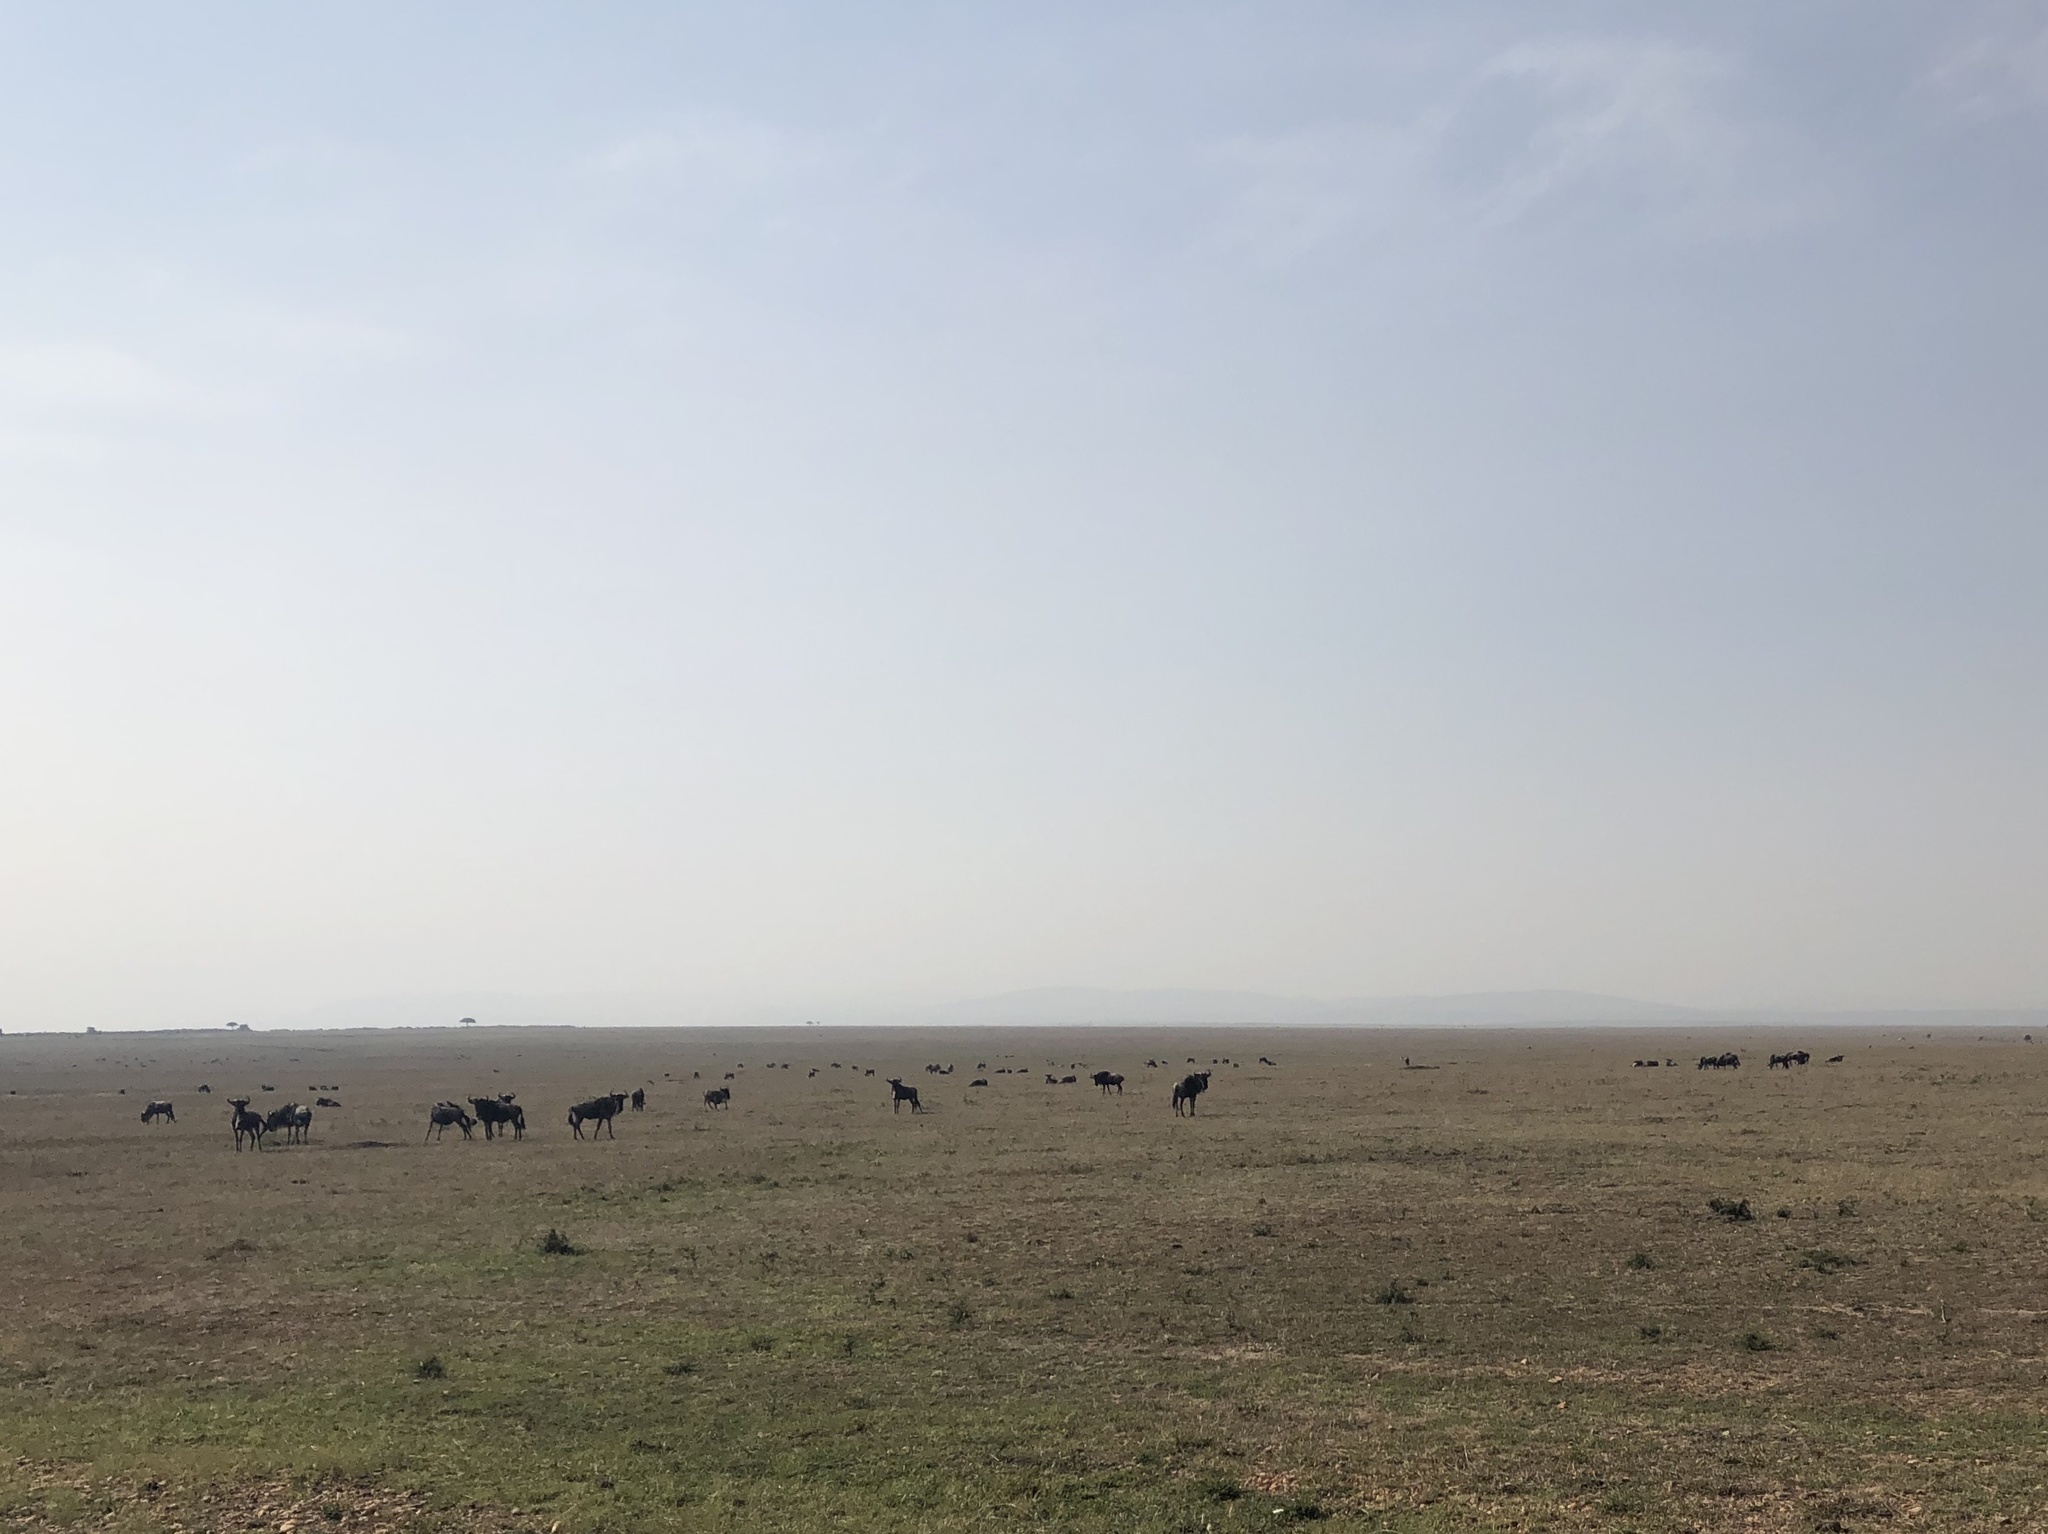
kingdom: Animalia
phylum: Chordata
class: Mammalia
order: Artiodactyla
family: Bovidae
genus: Connochaetes
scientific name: Connochaetes taurinus
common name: Blue wildebeest
